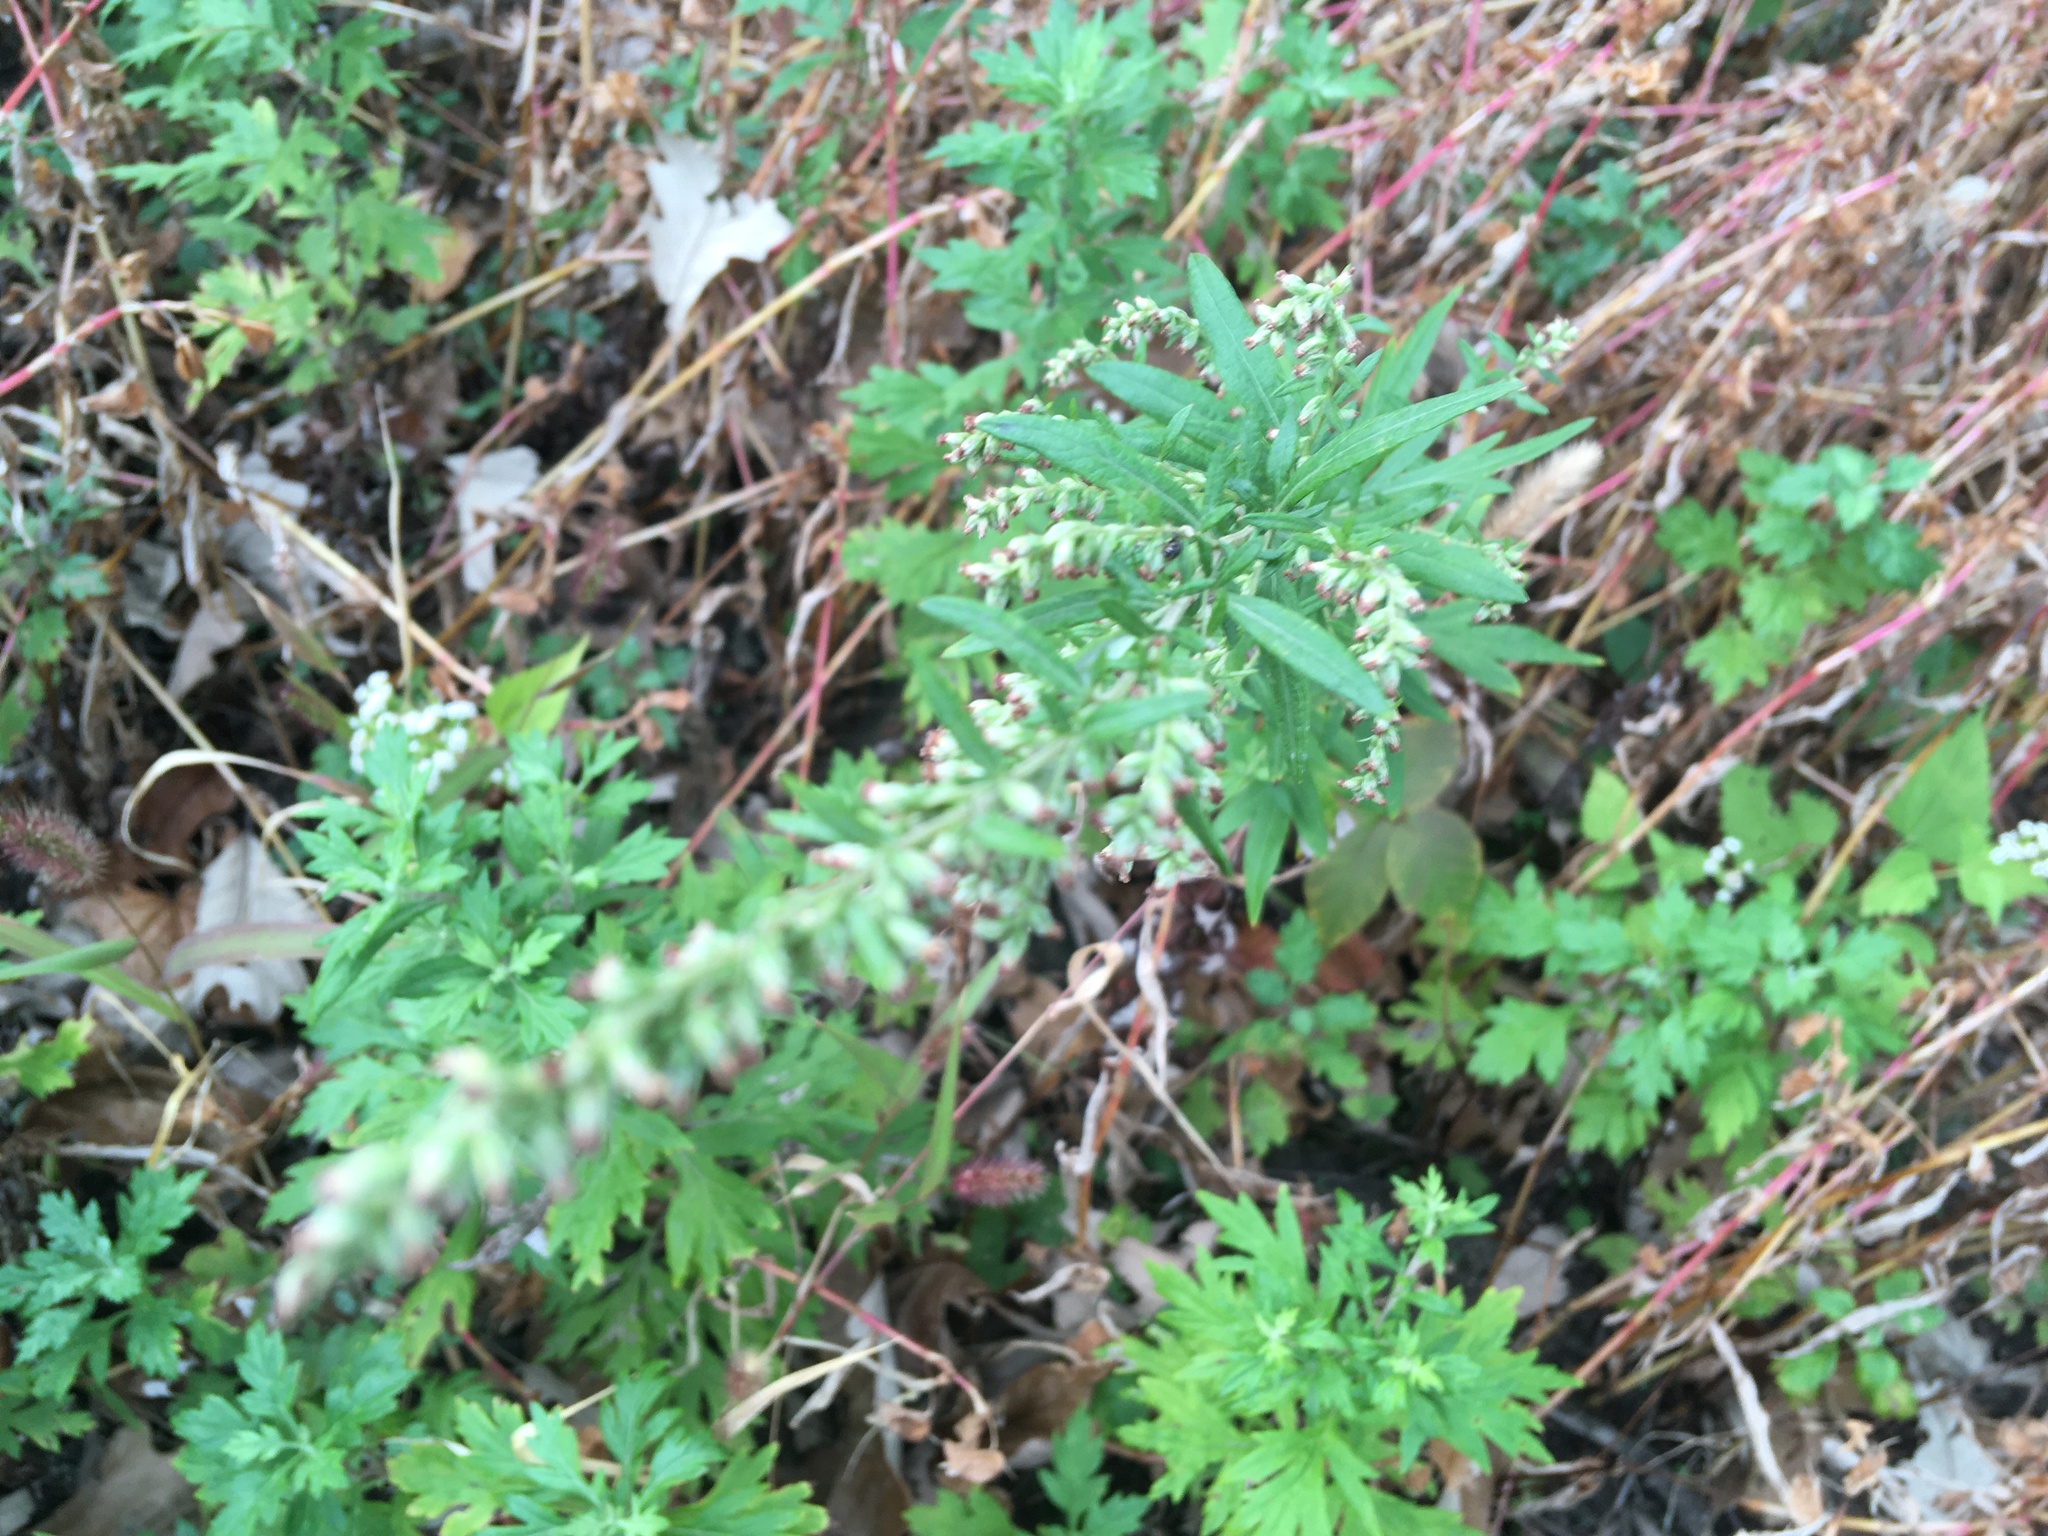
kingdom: Plantae
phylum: Tracheophyta
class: Magnoliopsida
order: Asterales
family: Asteraceae
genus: Artemisia
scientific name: Artemisia vulgaris
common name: Mugwort
